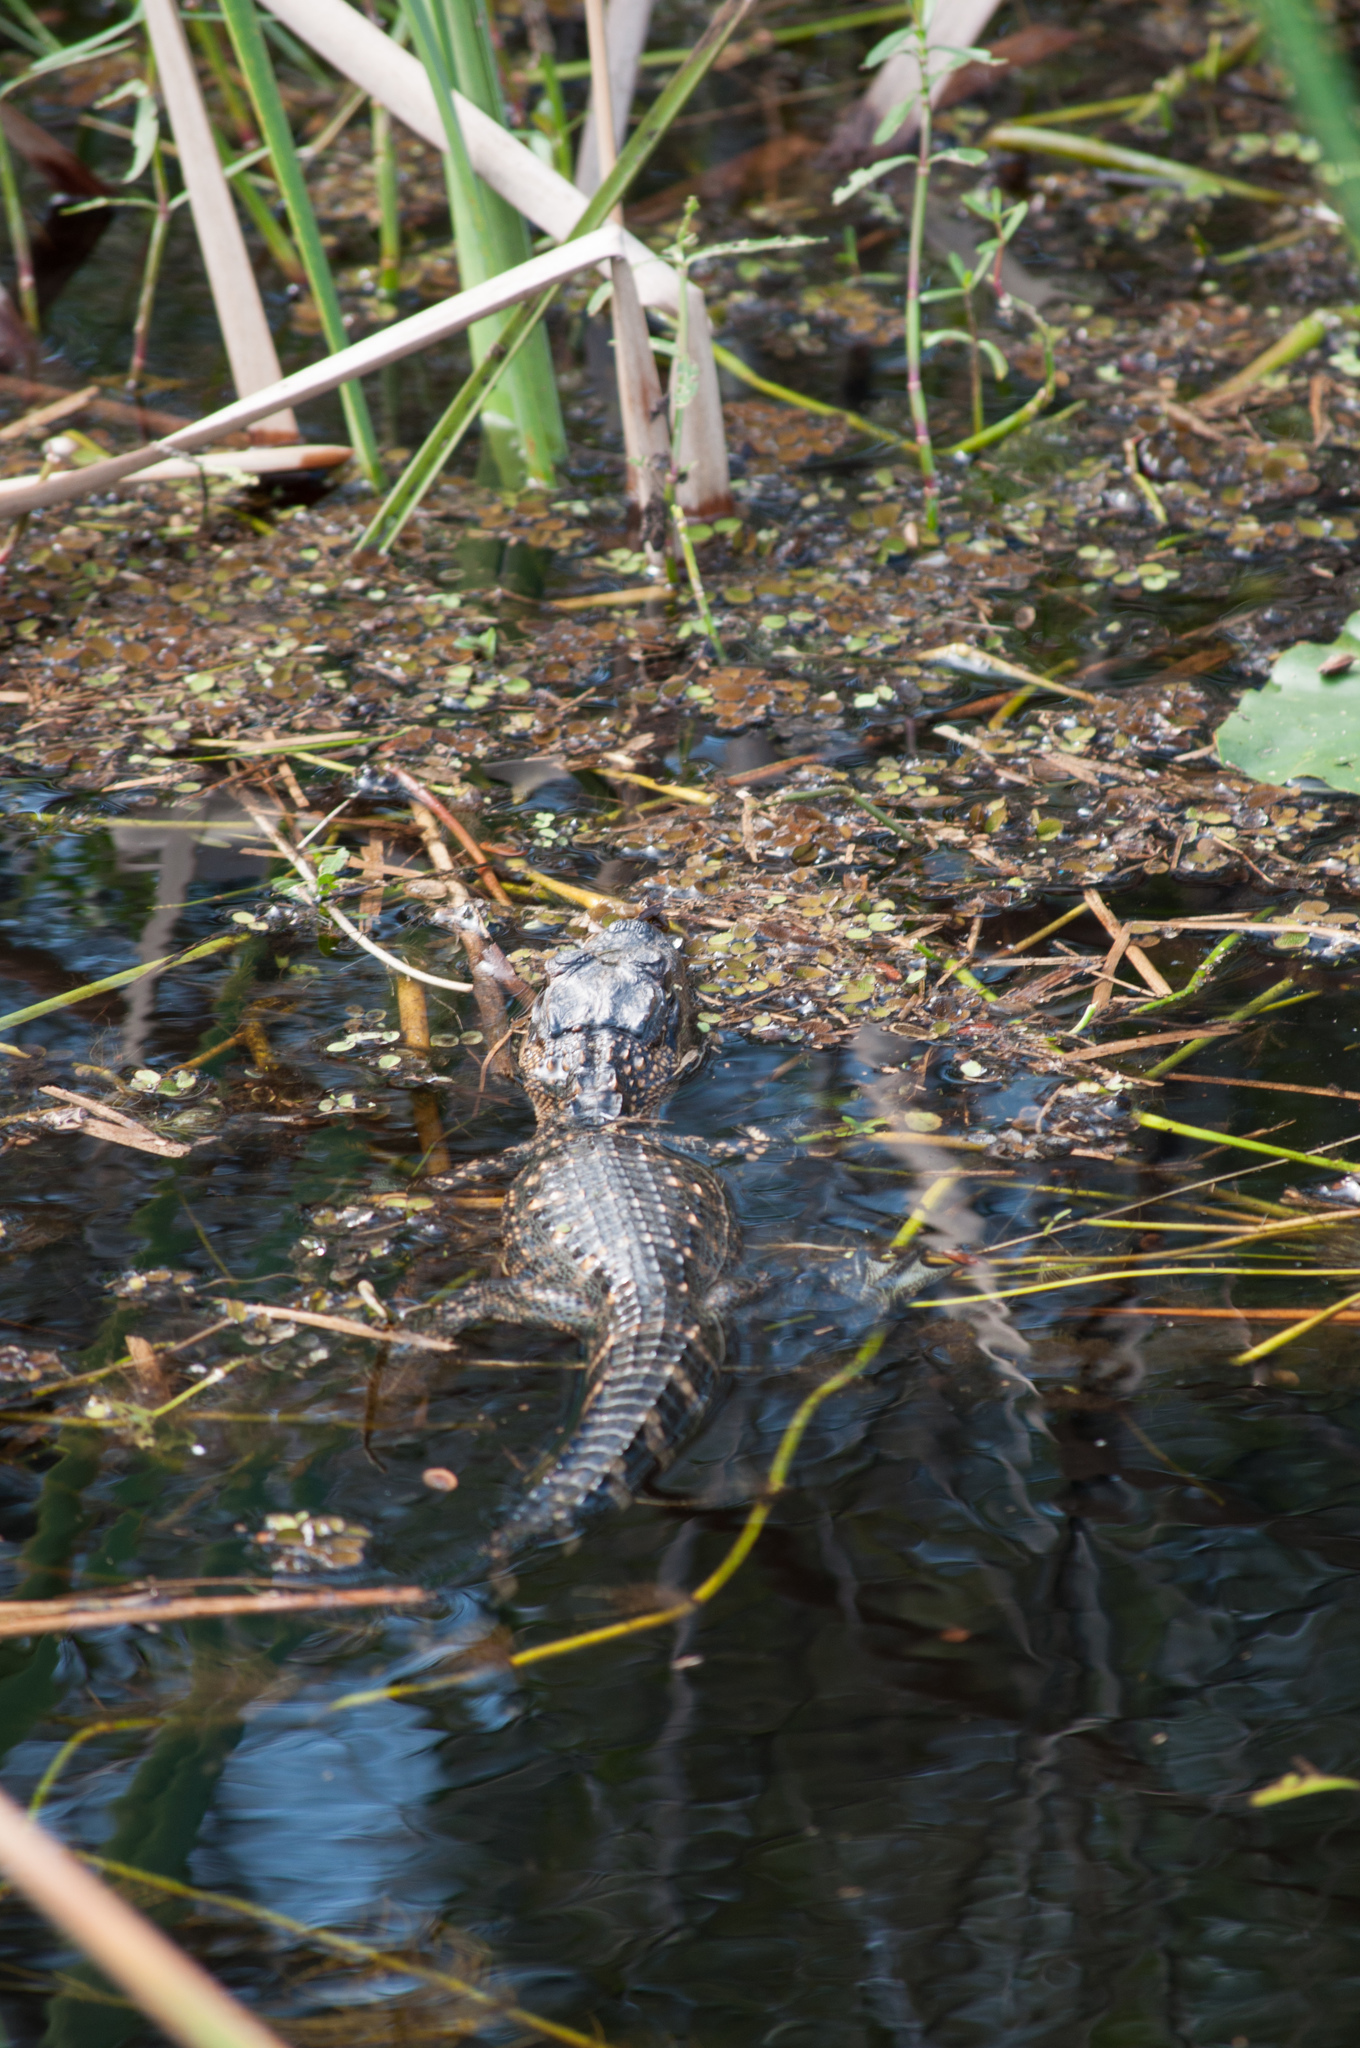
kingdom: Animalia
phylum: Chordata
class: Crocodylia
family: Alligatoridae
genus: Alligator
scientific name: Alligator mississippiensis
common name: American alligator
